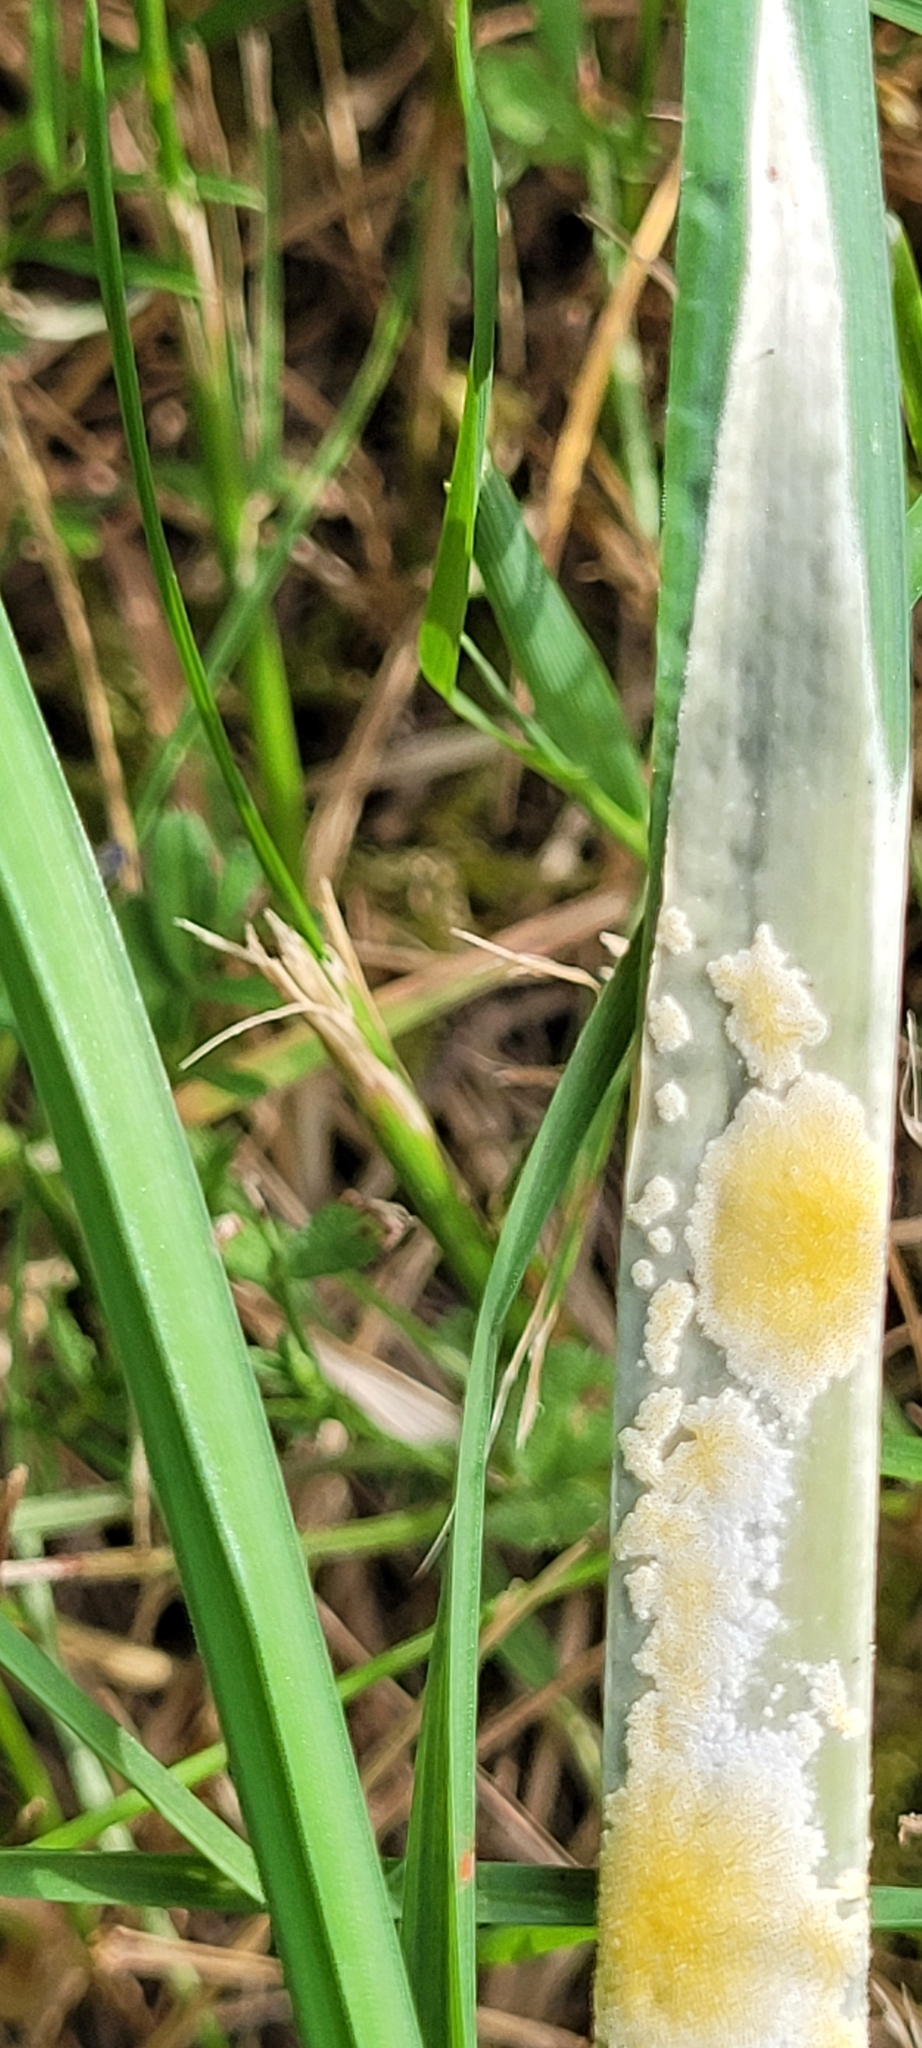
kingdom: Fungi
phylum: Ascomycota
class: Sordariomycetes
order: Hypocreales
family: Clavicipitaceae
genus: Epichloe
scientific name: Epichloe typhina
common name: Choke
